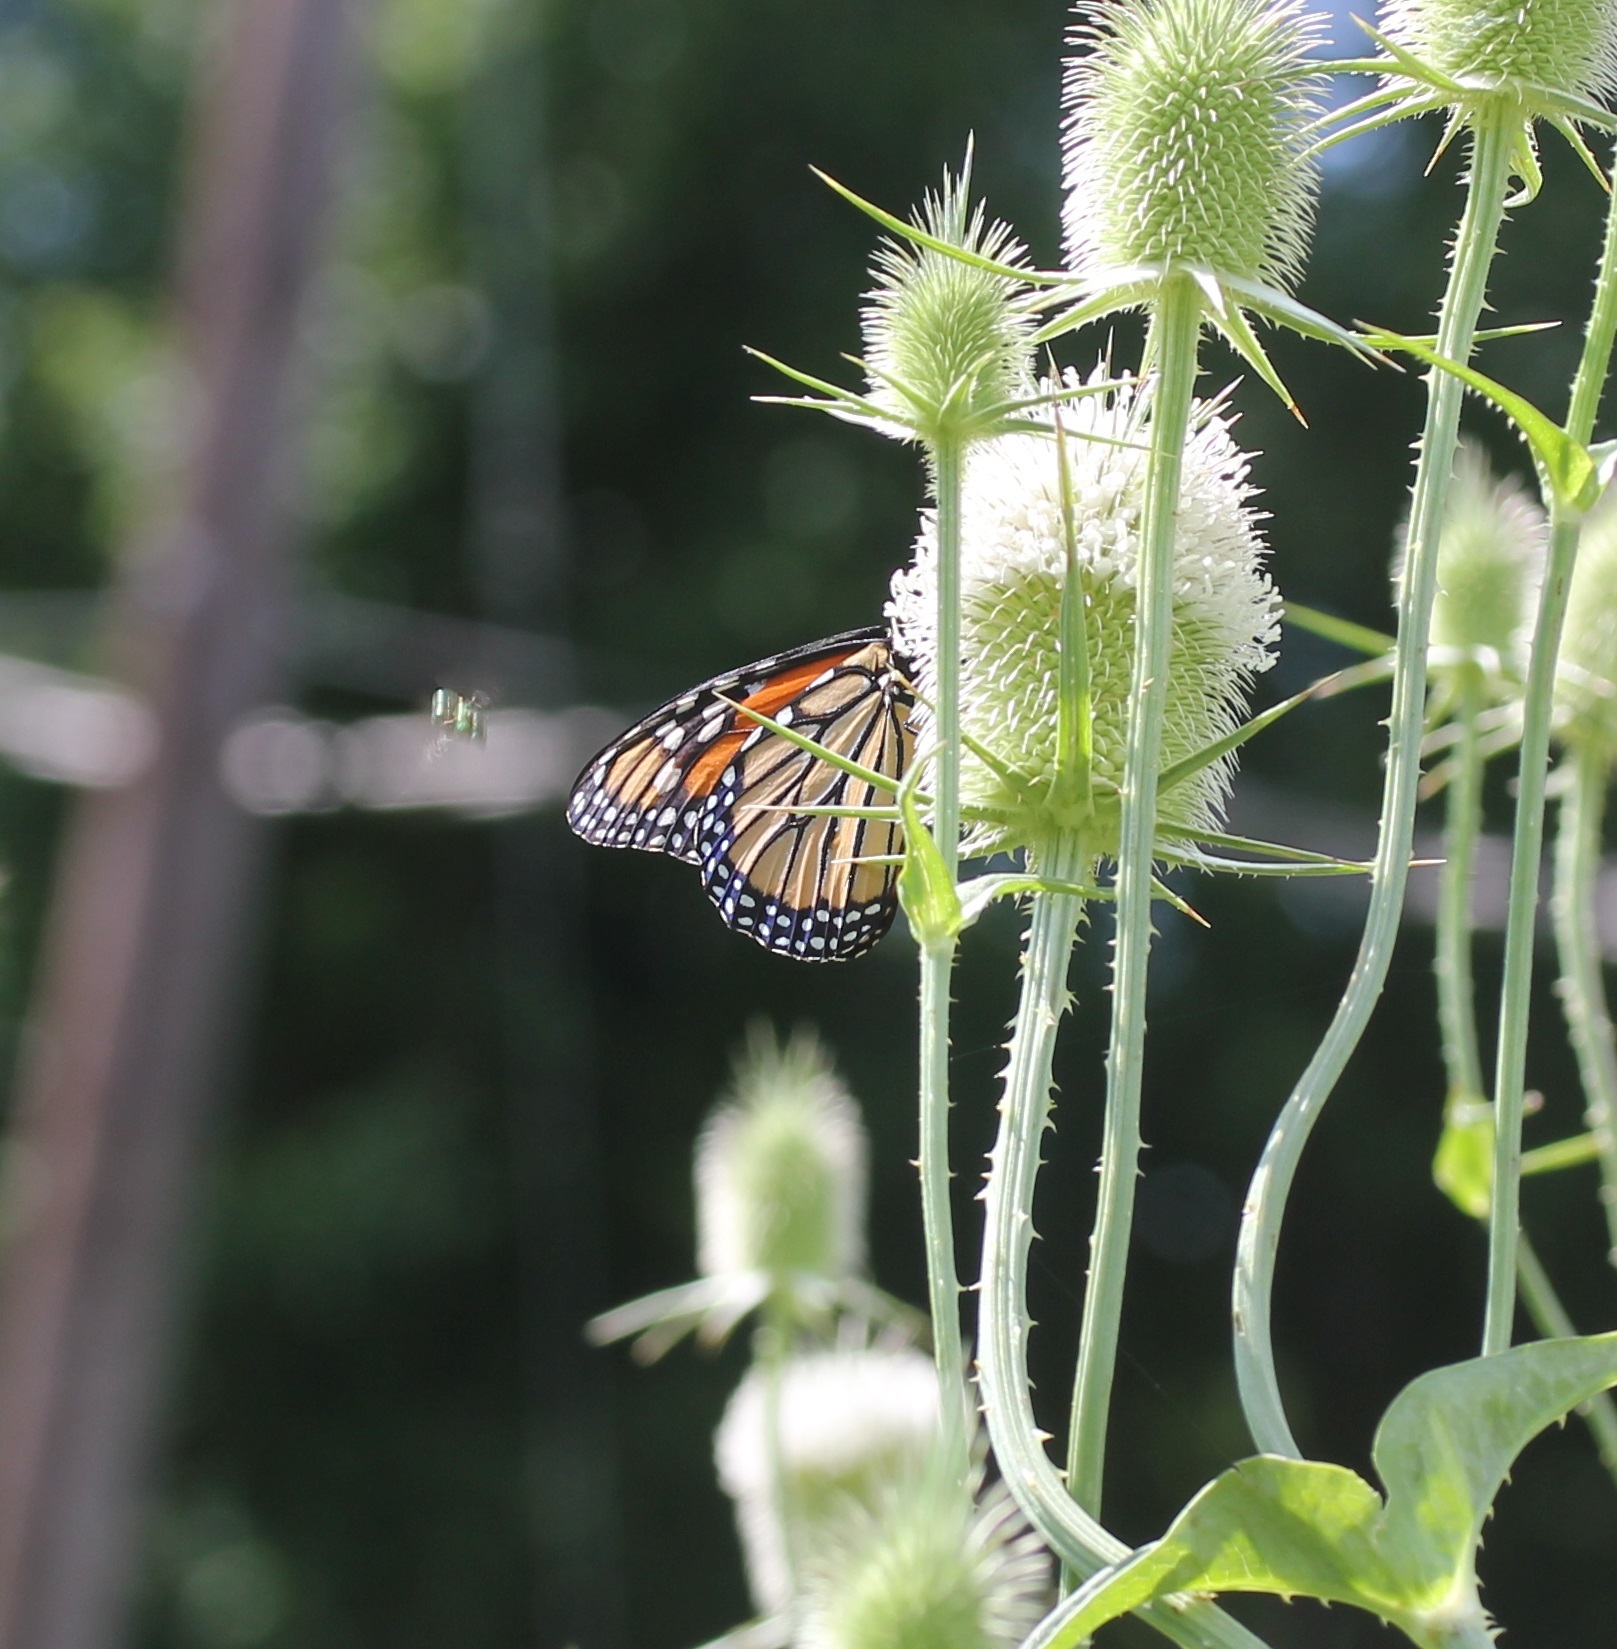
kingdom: Animalia
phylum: Arthropoda
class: Insecta
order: Lepidoptera
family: Nymphalidae
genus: Danaus
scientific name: Danaus plexippus
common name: Monarch
